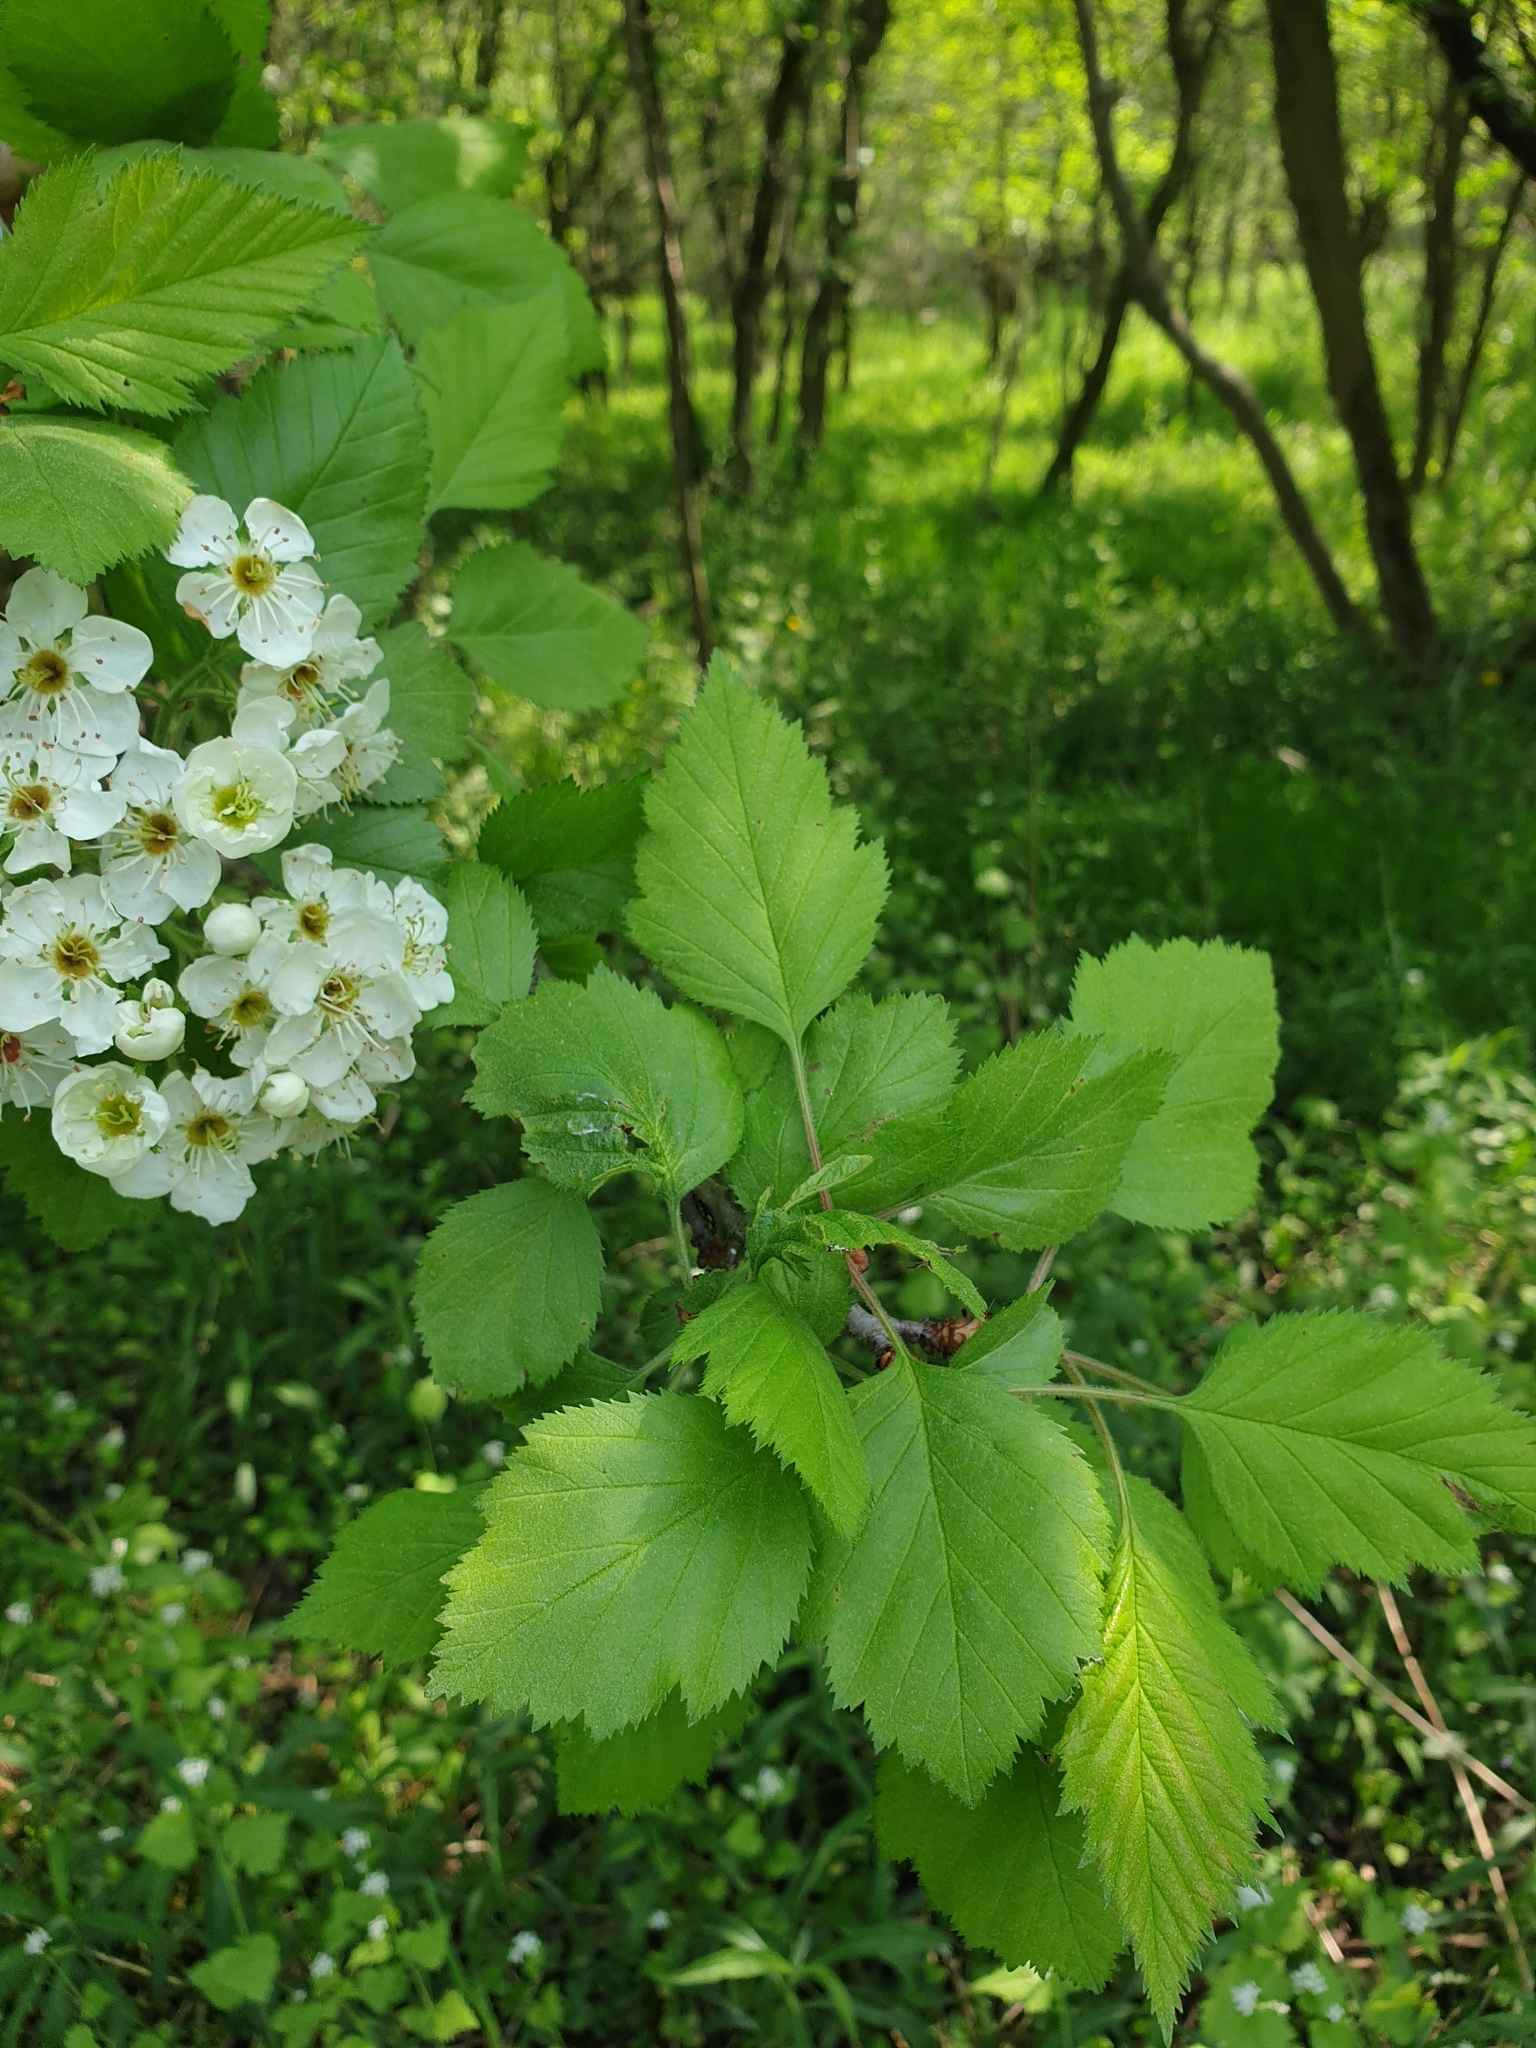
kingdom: Plantae
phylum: Tracheophyta
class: Magnoliopsida
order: Rosales
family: Rosaceae
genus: Crataegus
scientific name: Crataegus mollis
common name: Downy hawthorn
